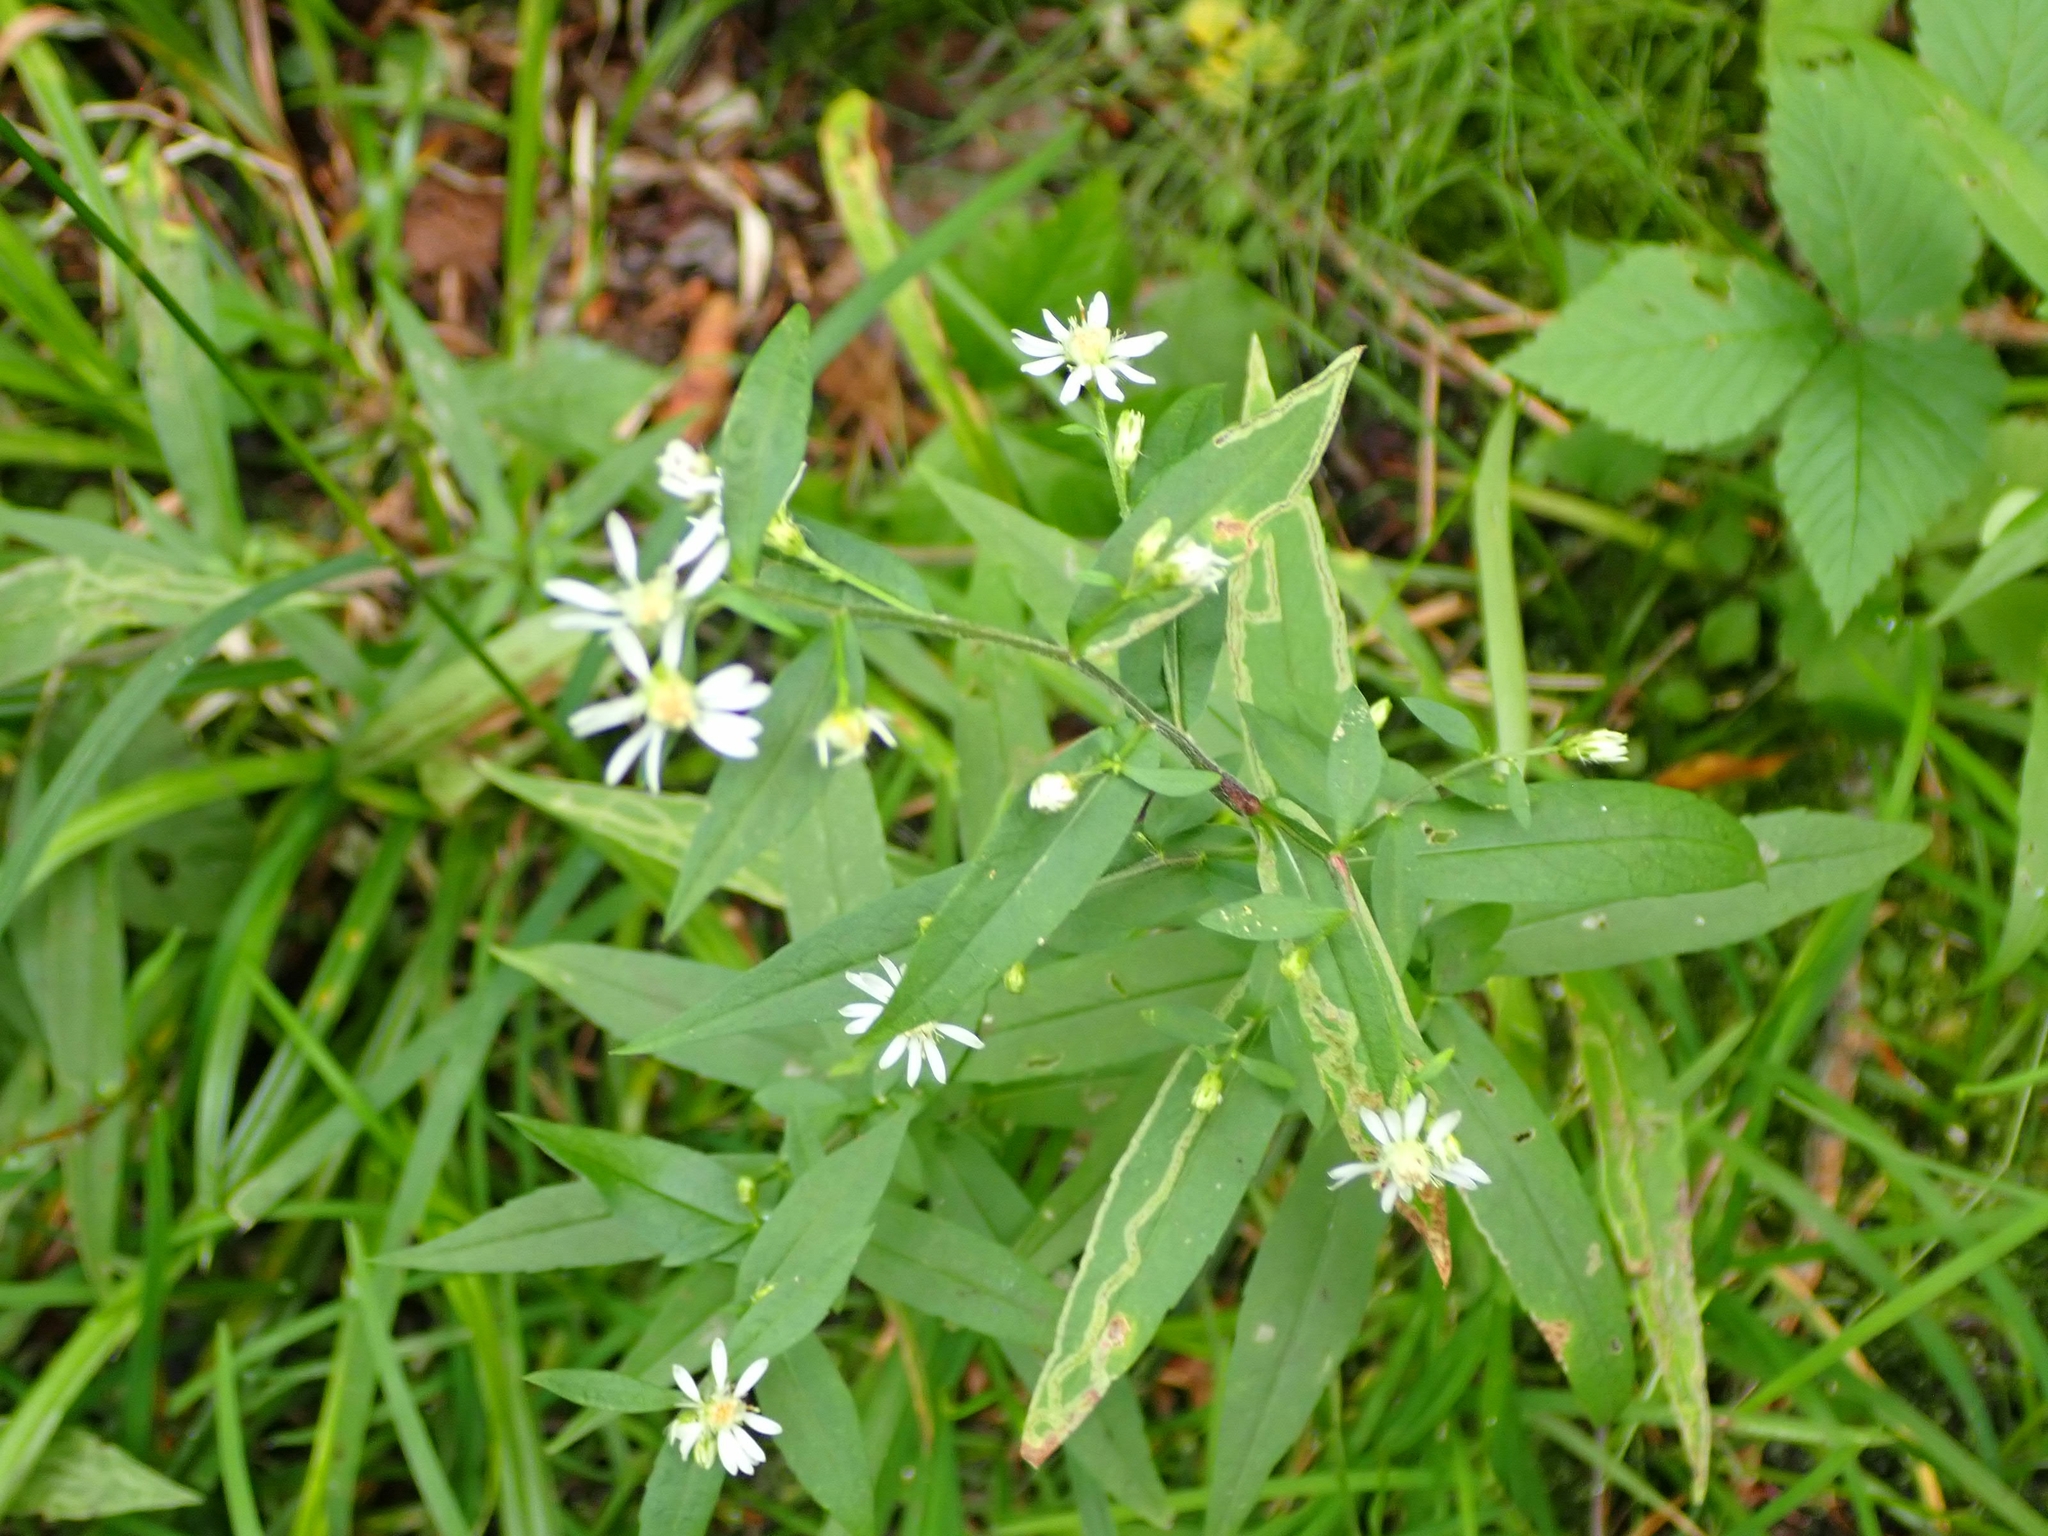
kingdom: Plantae
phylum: Tracheophyta
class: Magnoliopsida
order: Asterales
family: Asteraceae
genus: Symphyotrichum
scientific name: Symphyotrichum lateriflorum
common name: Calico aster
